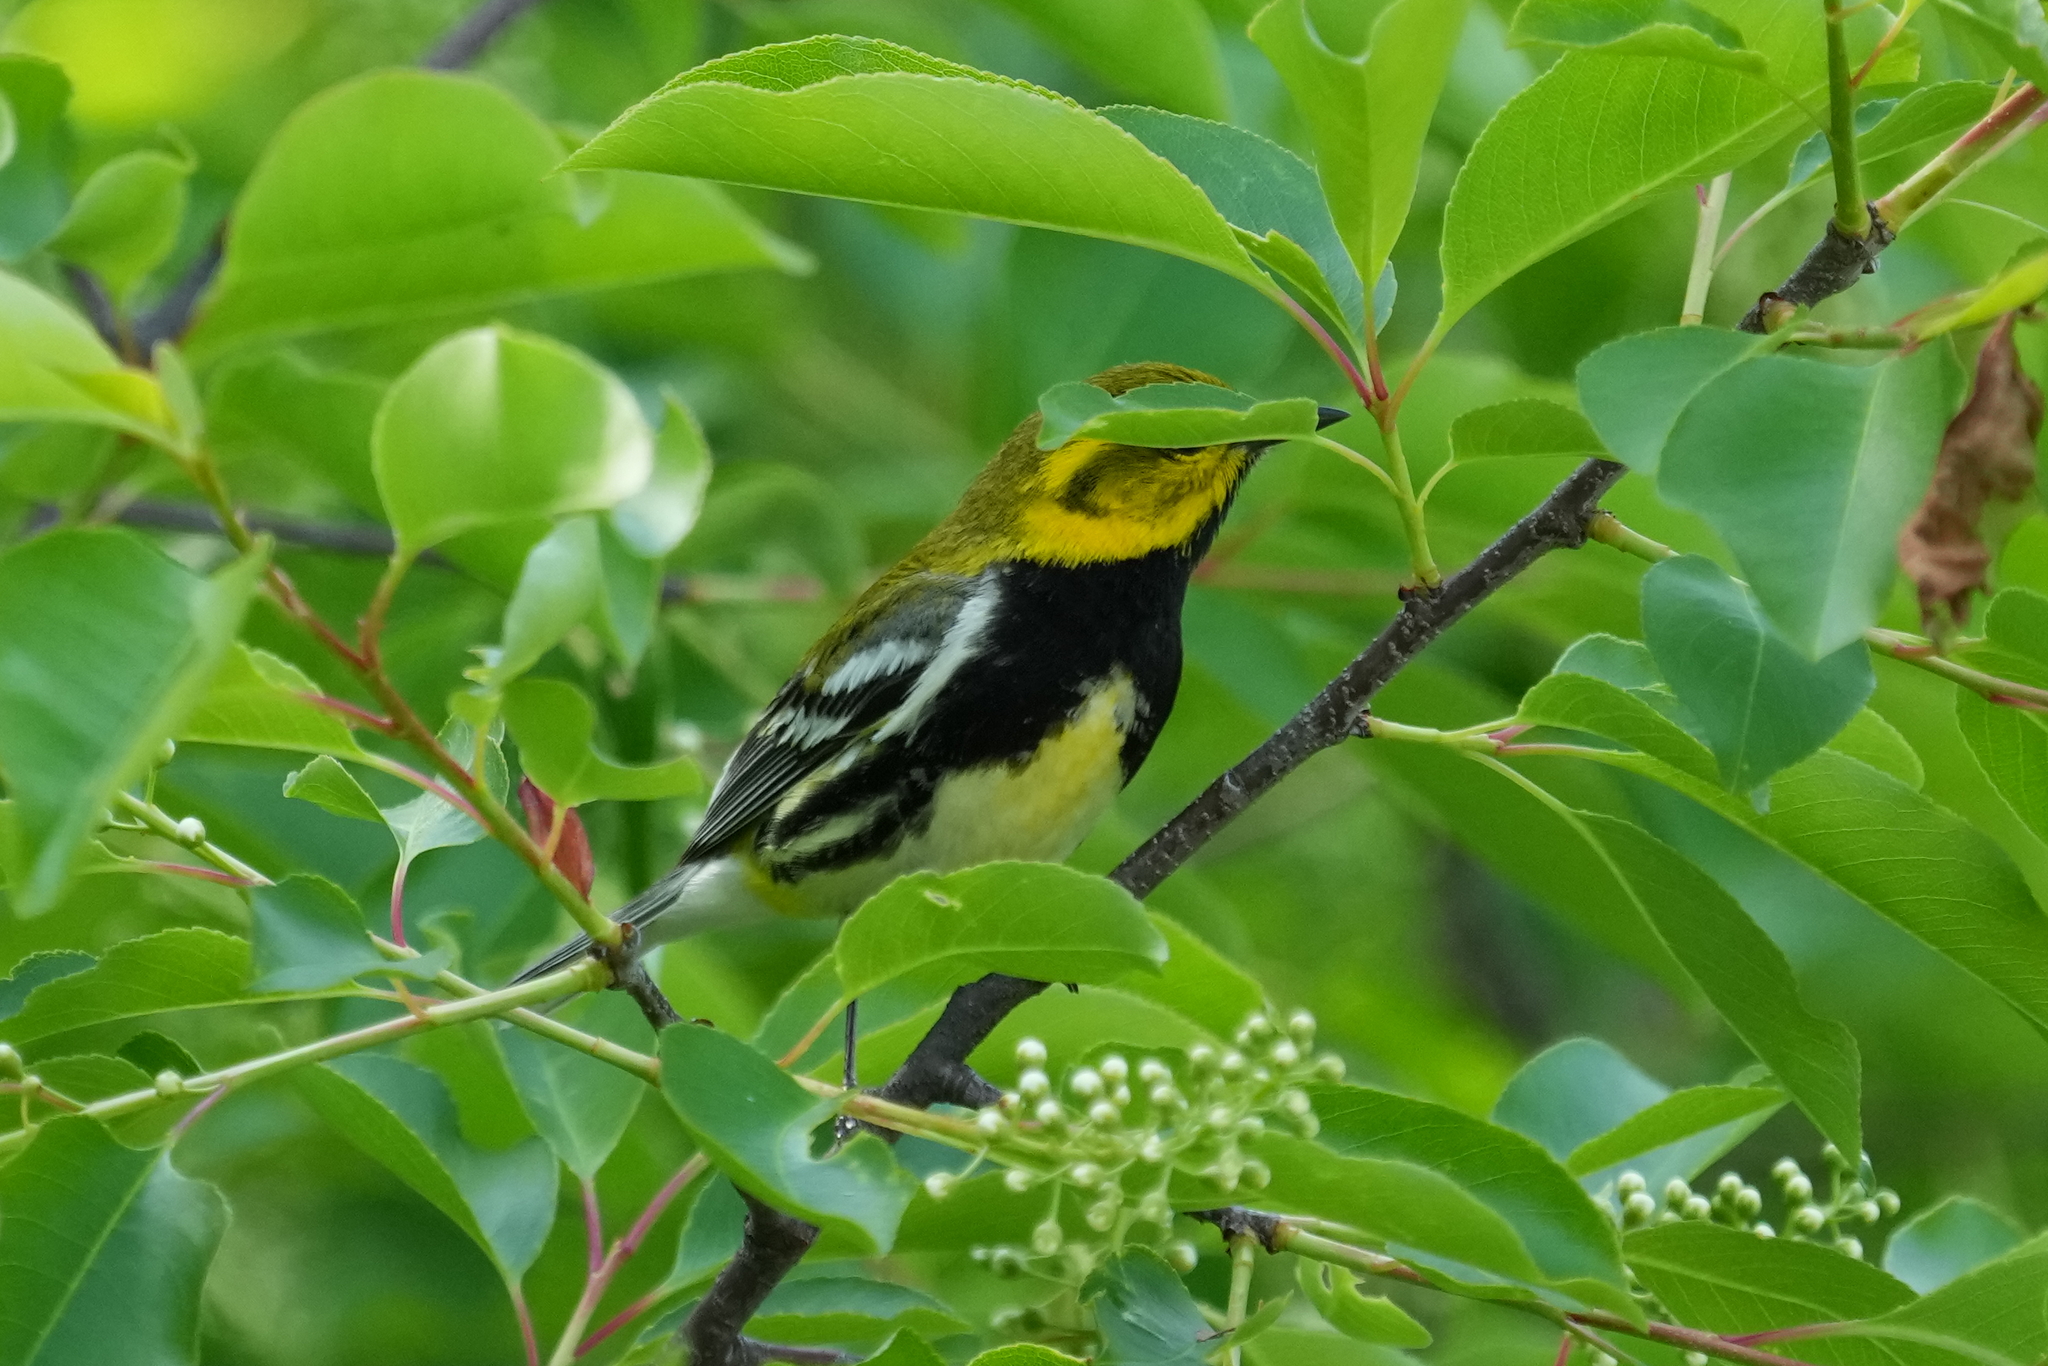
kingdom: Animalia
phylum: Chordata
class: Aves
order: Passeriformes
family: Parulidae
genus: Setophaga
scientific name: Setophaga virens
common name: Black-throated green warbler
